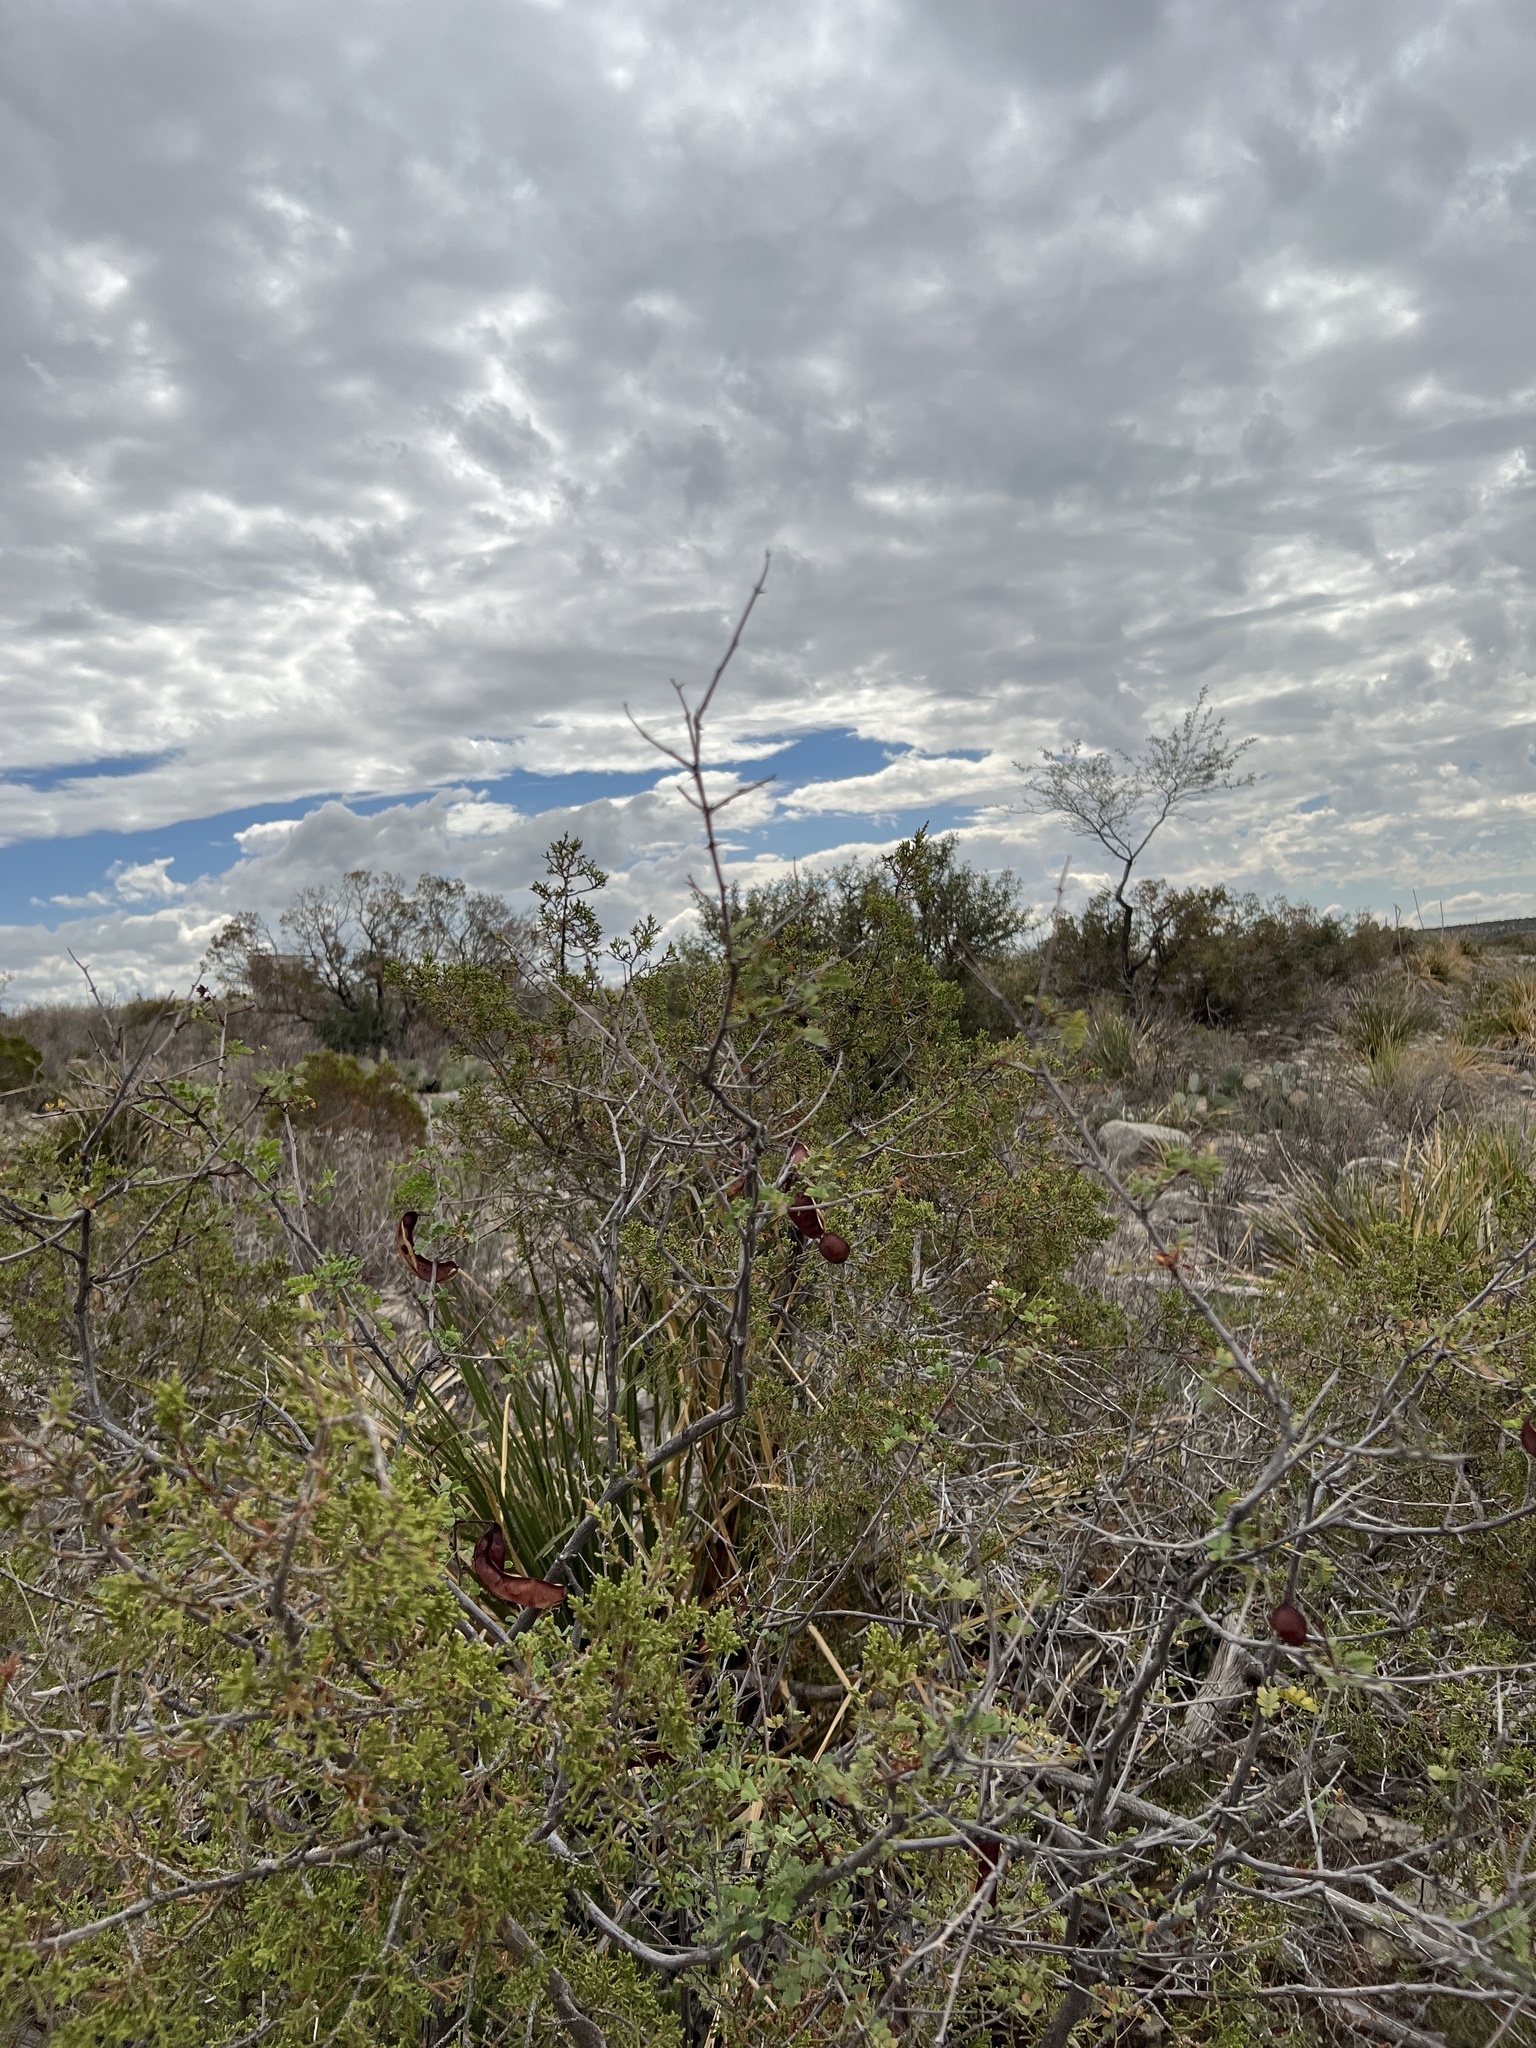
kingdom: Plantae
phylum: Tracheophyta
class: Magnoliopsida
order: Fabales
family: Fabaceae
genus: Senegalia
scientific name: Senegalia roemeriana
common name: Roemer's acacia
